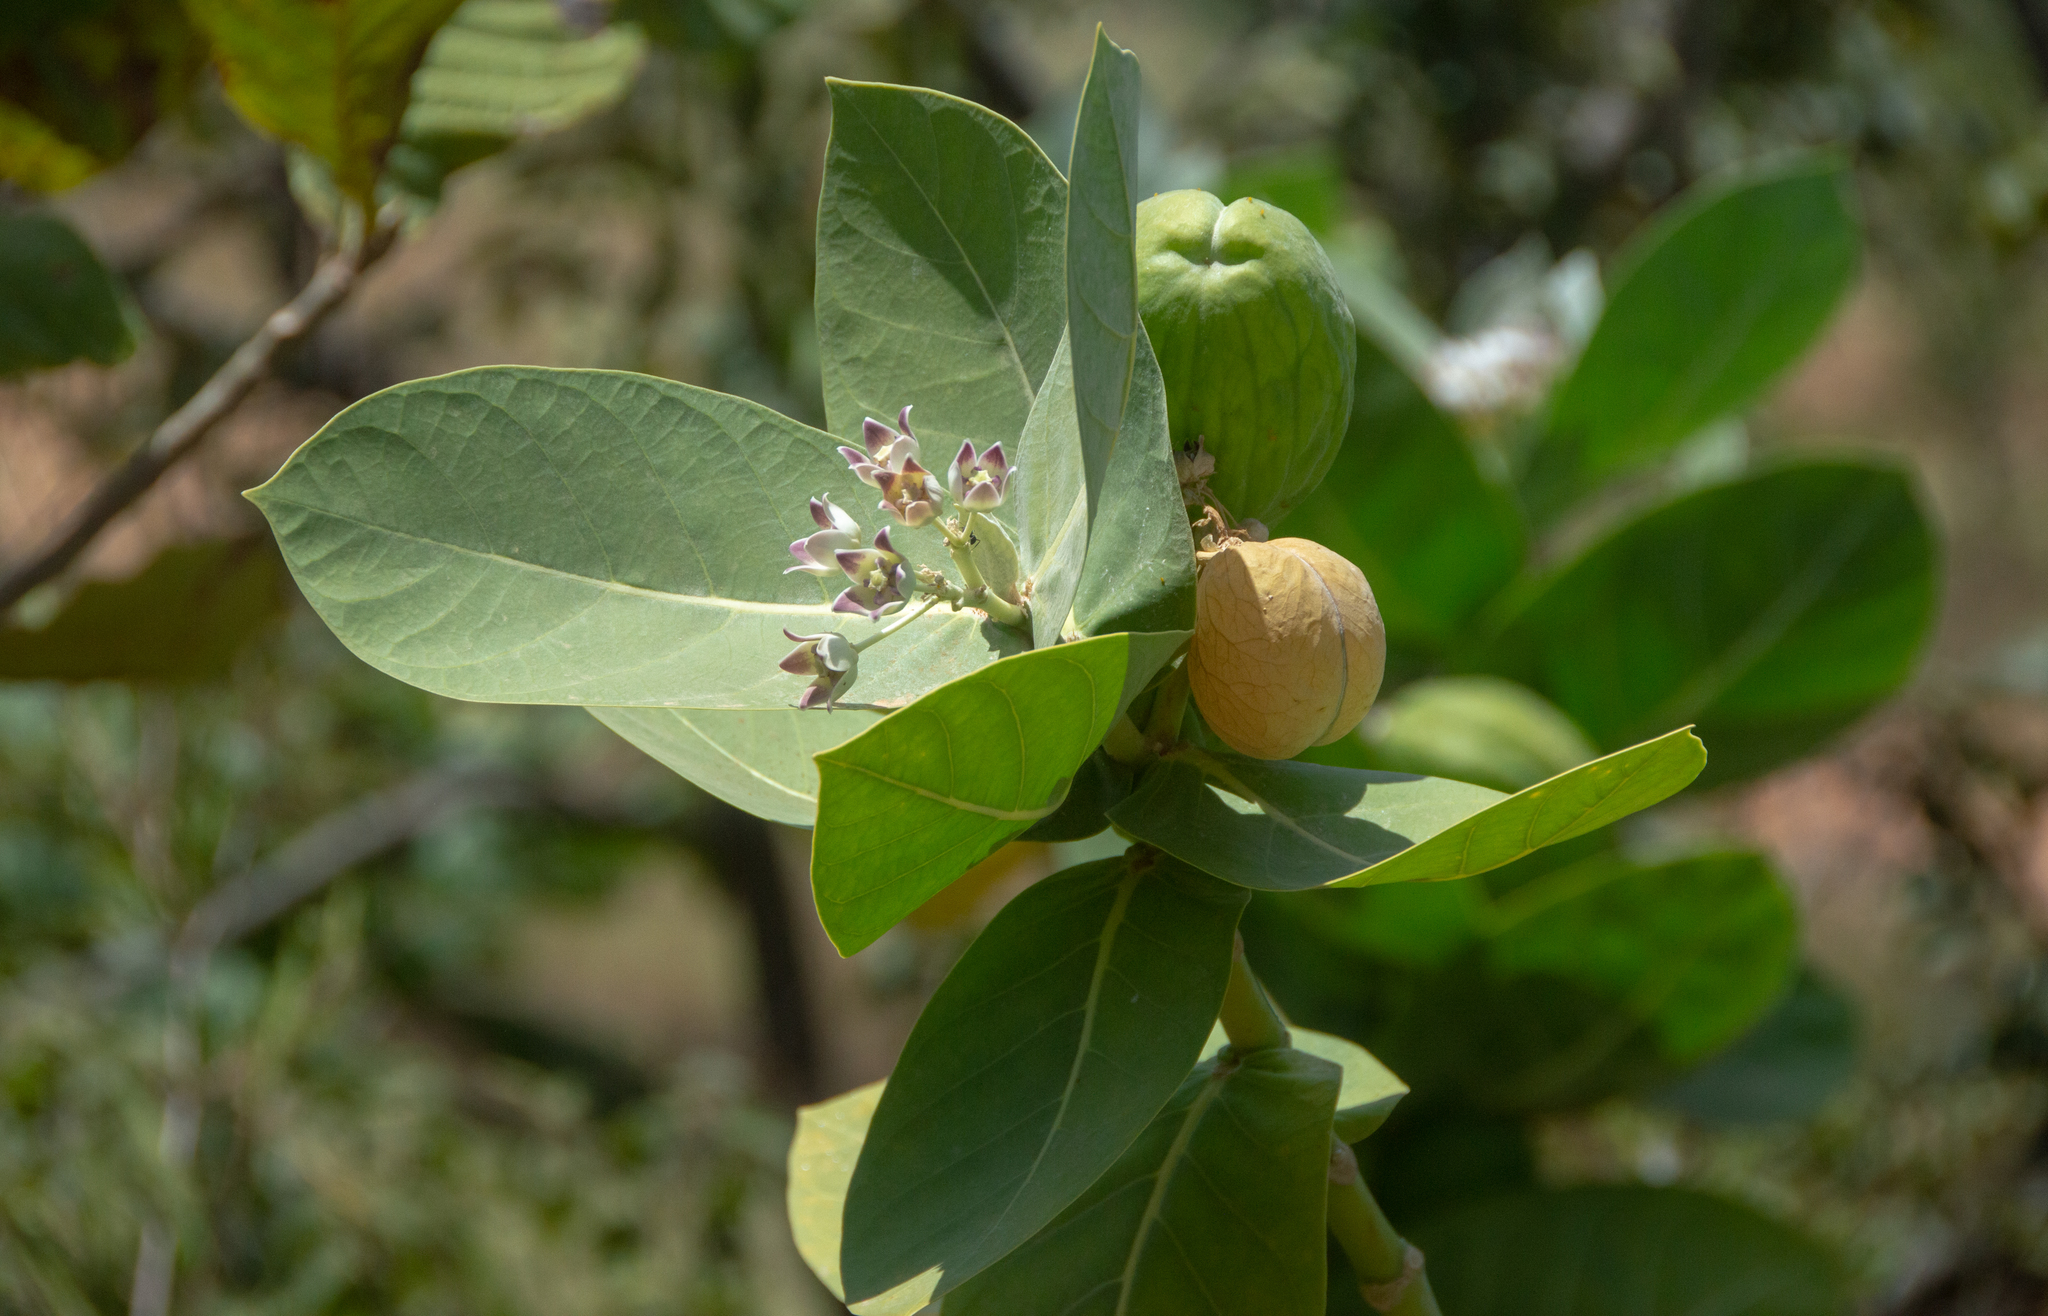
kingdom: Plantae
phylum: Tracheophyta
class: Magnoliopsida
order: Gentianales
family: Apocynaceae
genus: Calotropis
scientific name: Calotropis procera
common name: Roostertree
